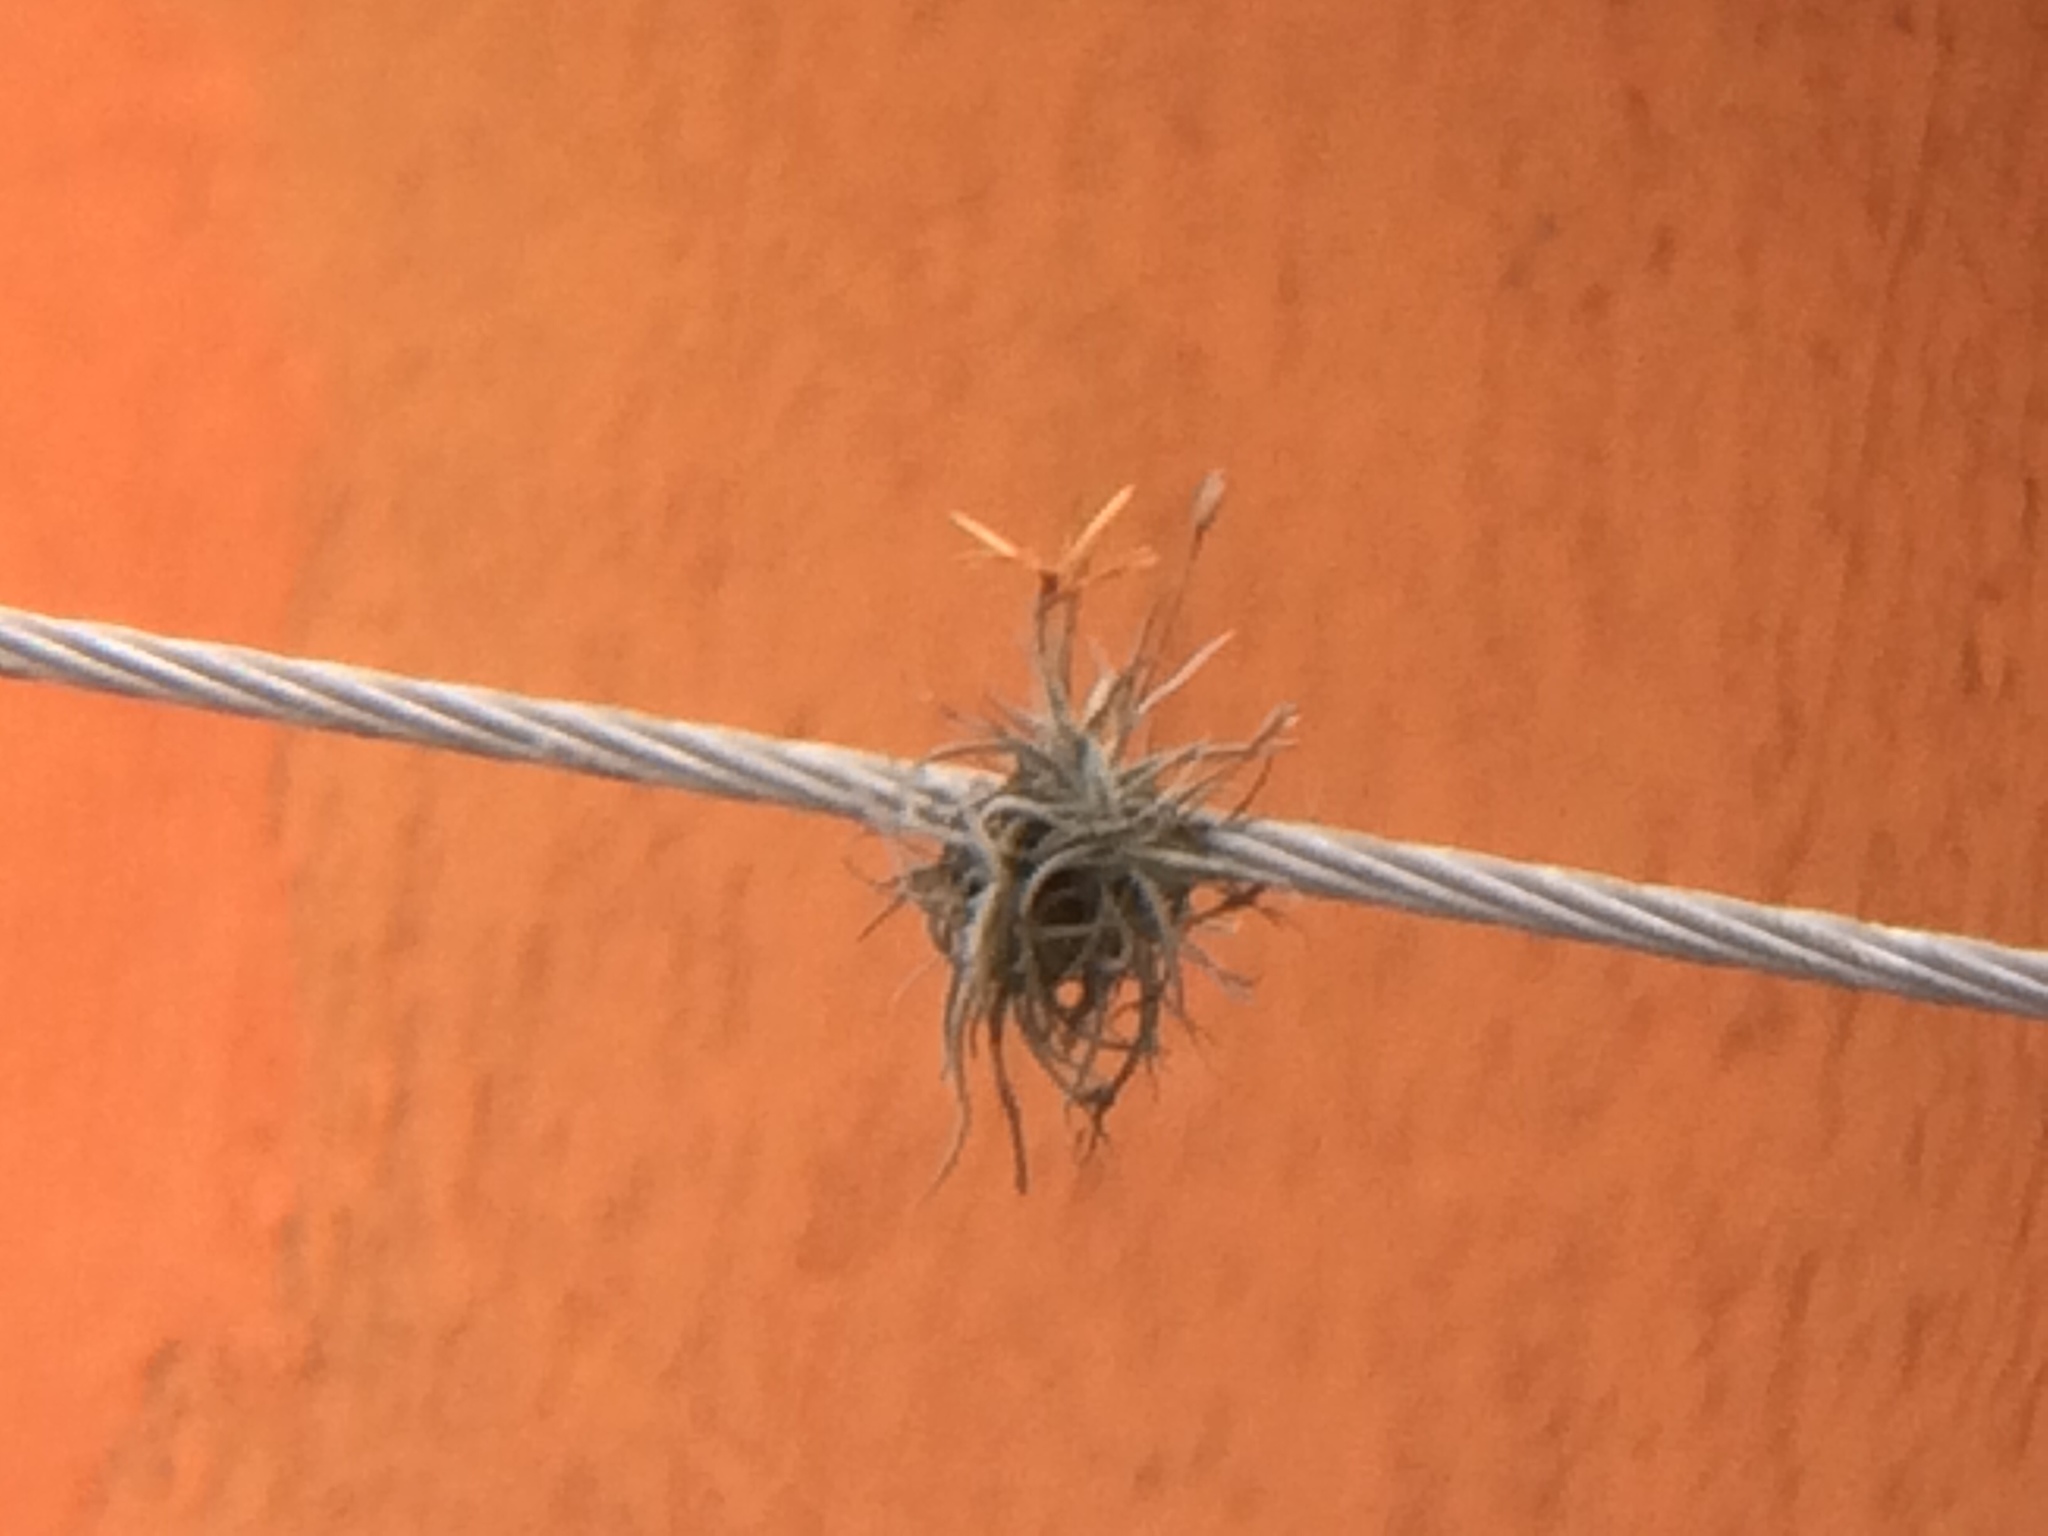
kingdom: Plantae
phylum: Tracheophyta
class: Liliopsida
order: Poales
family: Bromeliaceae
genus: Tillandsia
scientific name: Tillandsia recurvata
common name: Small ballmoss
